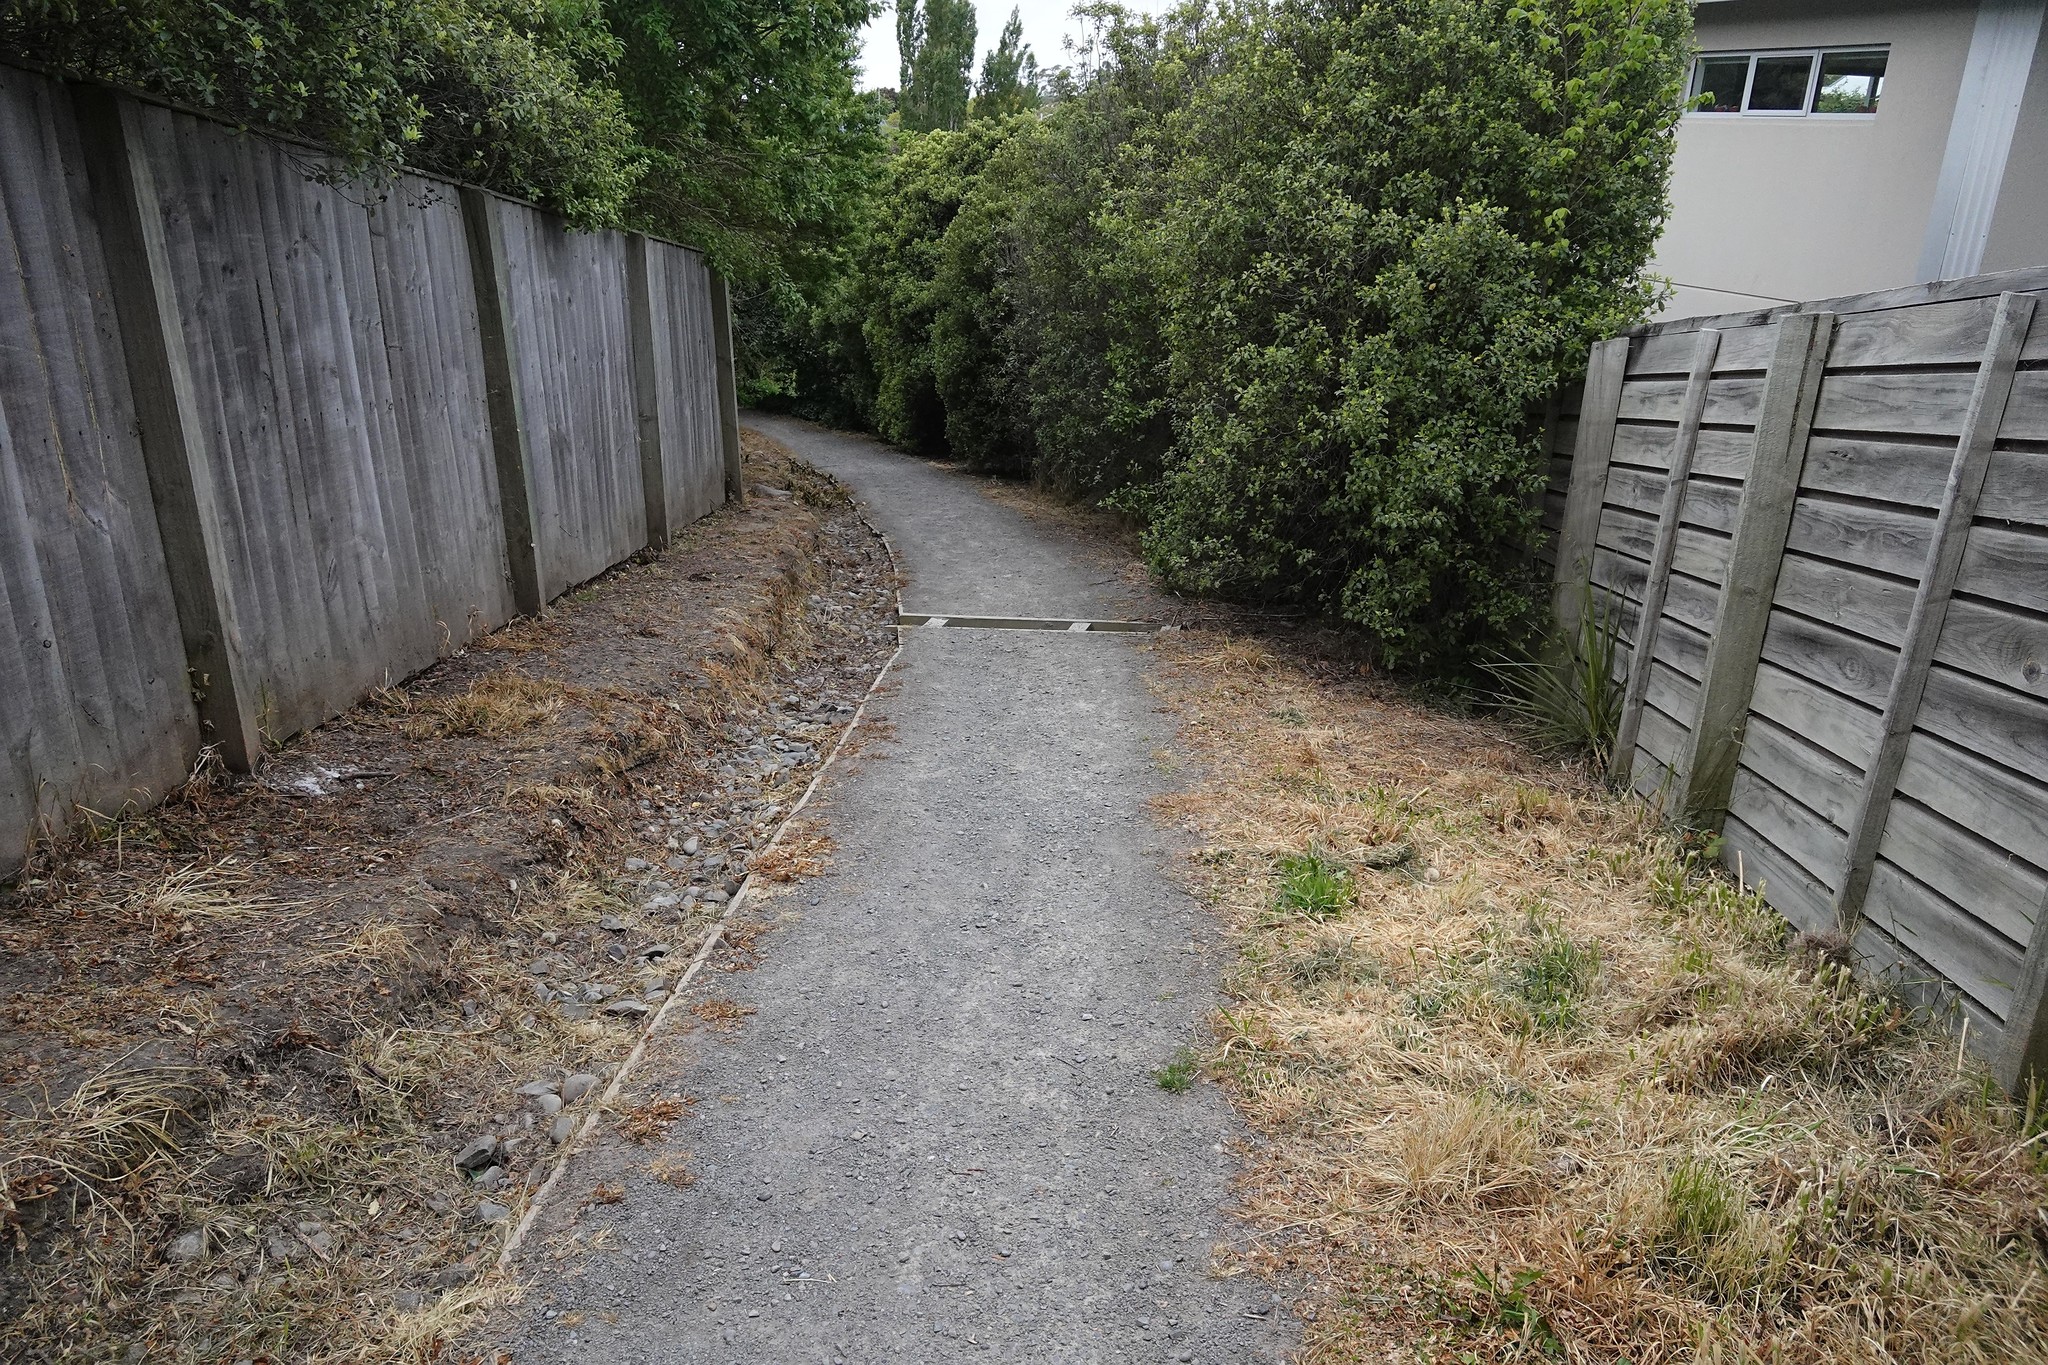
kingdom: Plantae
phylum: Tracheophyta
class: Liliopsida
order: Asparagales
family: Asparagaceae
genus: Cordyline
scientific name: Cordyline australis
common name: Cabbage-palm
